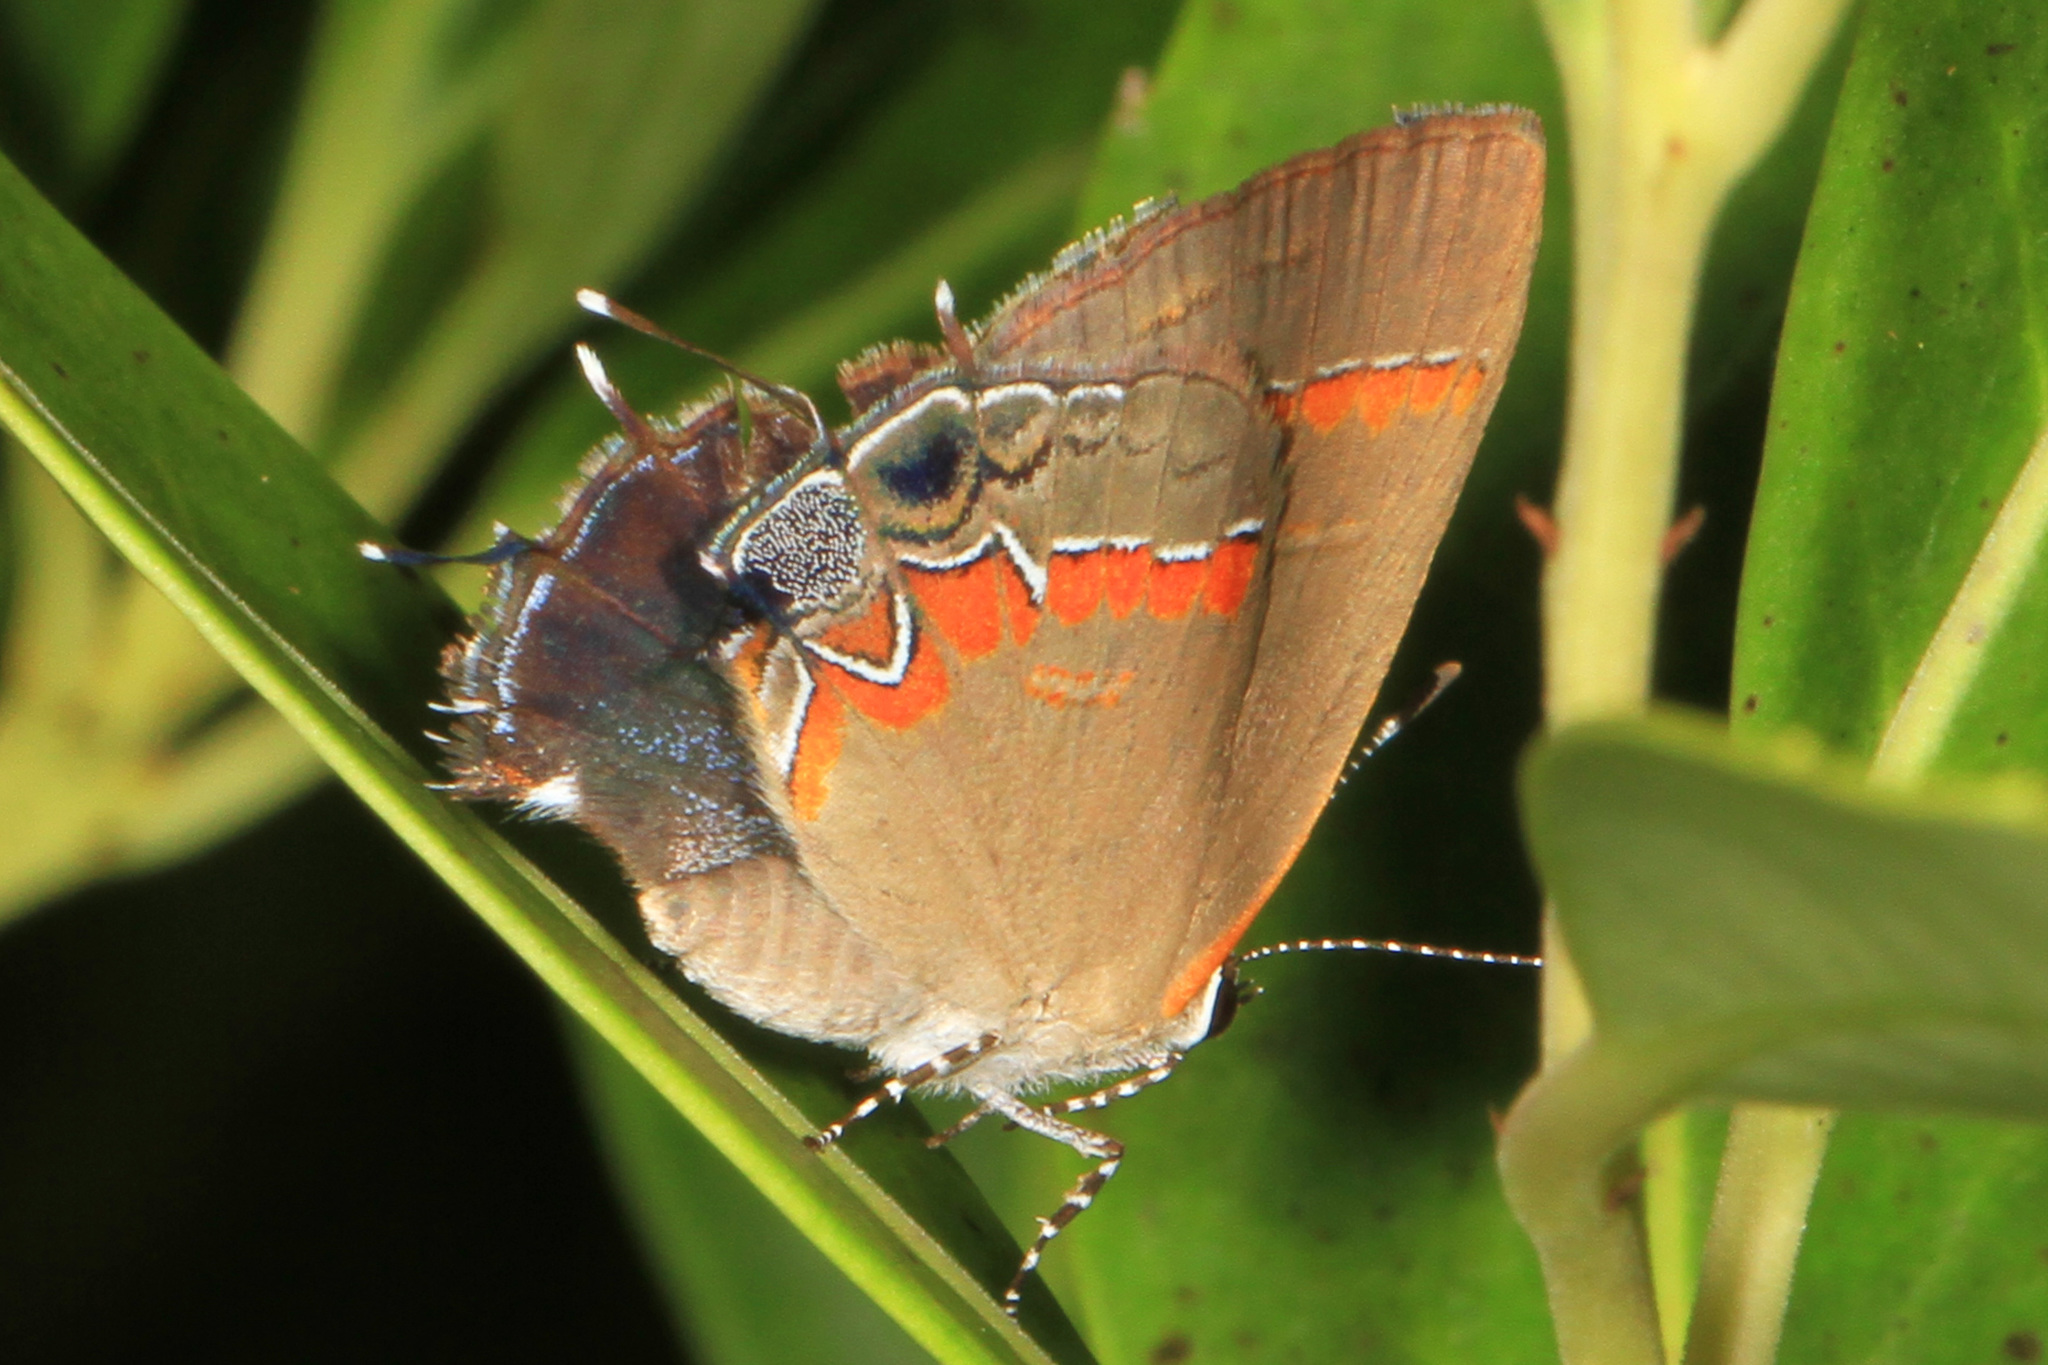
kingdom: Animalia
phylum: Arthropoda
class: Insecta
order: Lepidoptera
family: Lycaenidae
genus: Calycopis
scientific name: Calycopis cecrops
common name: Red-banded hairstreak
